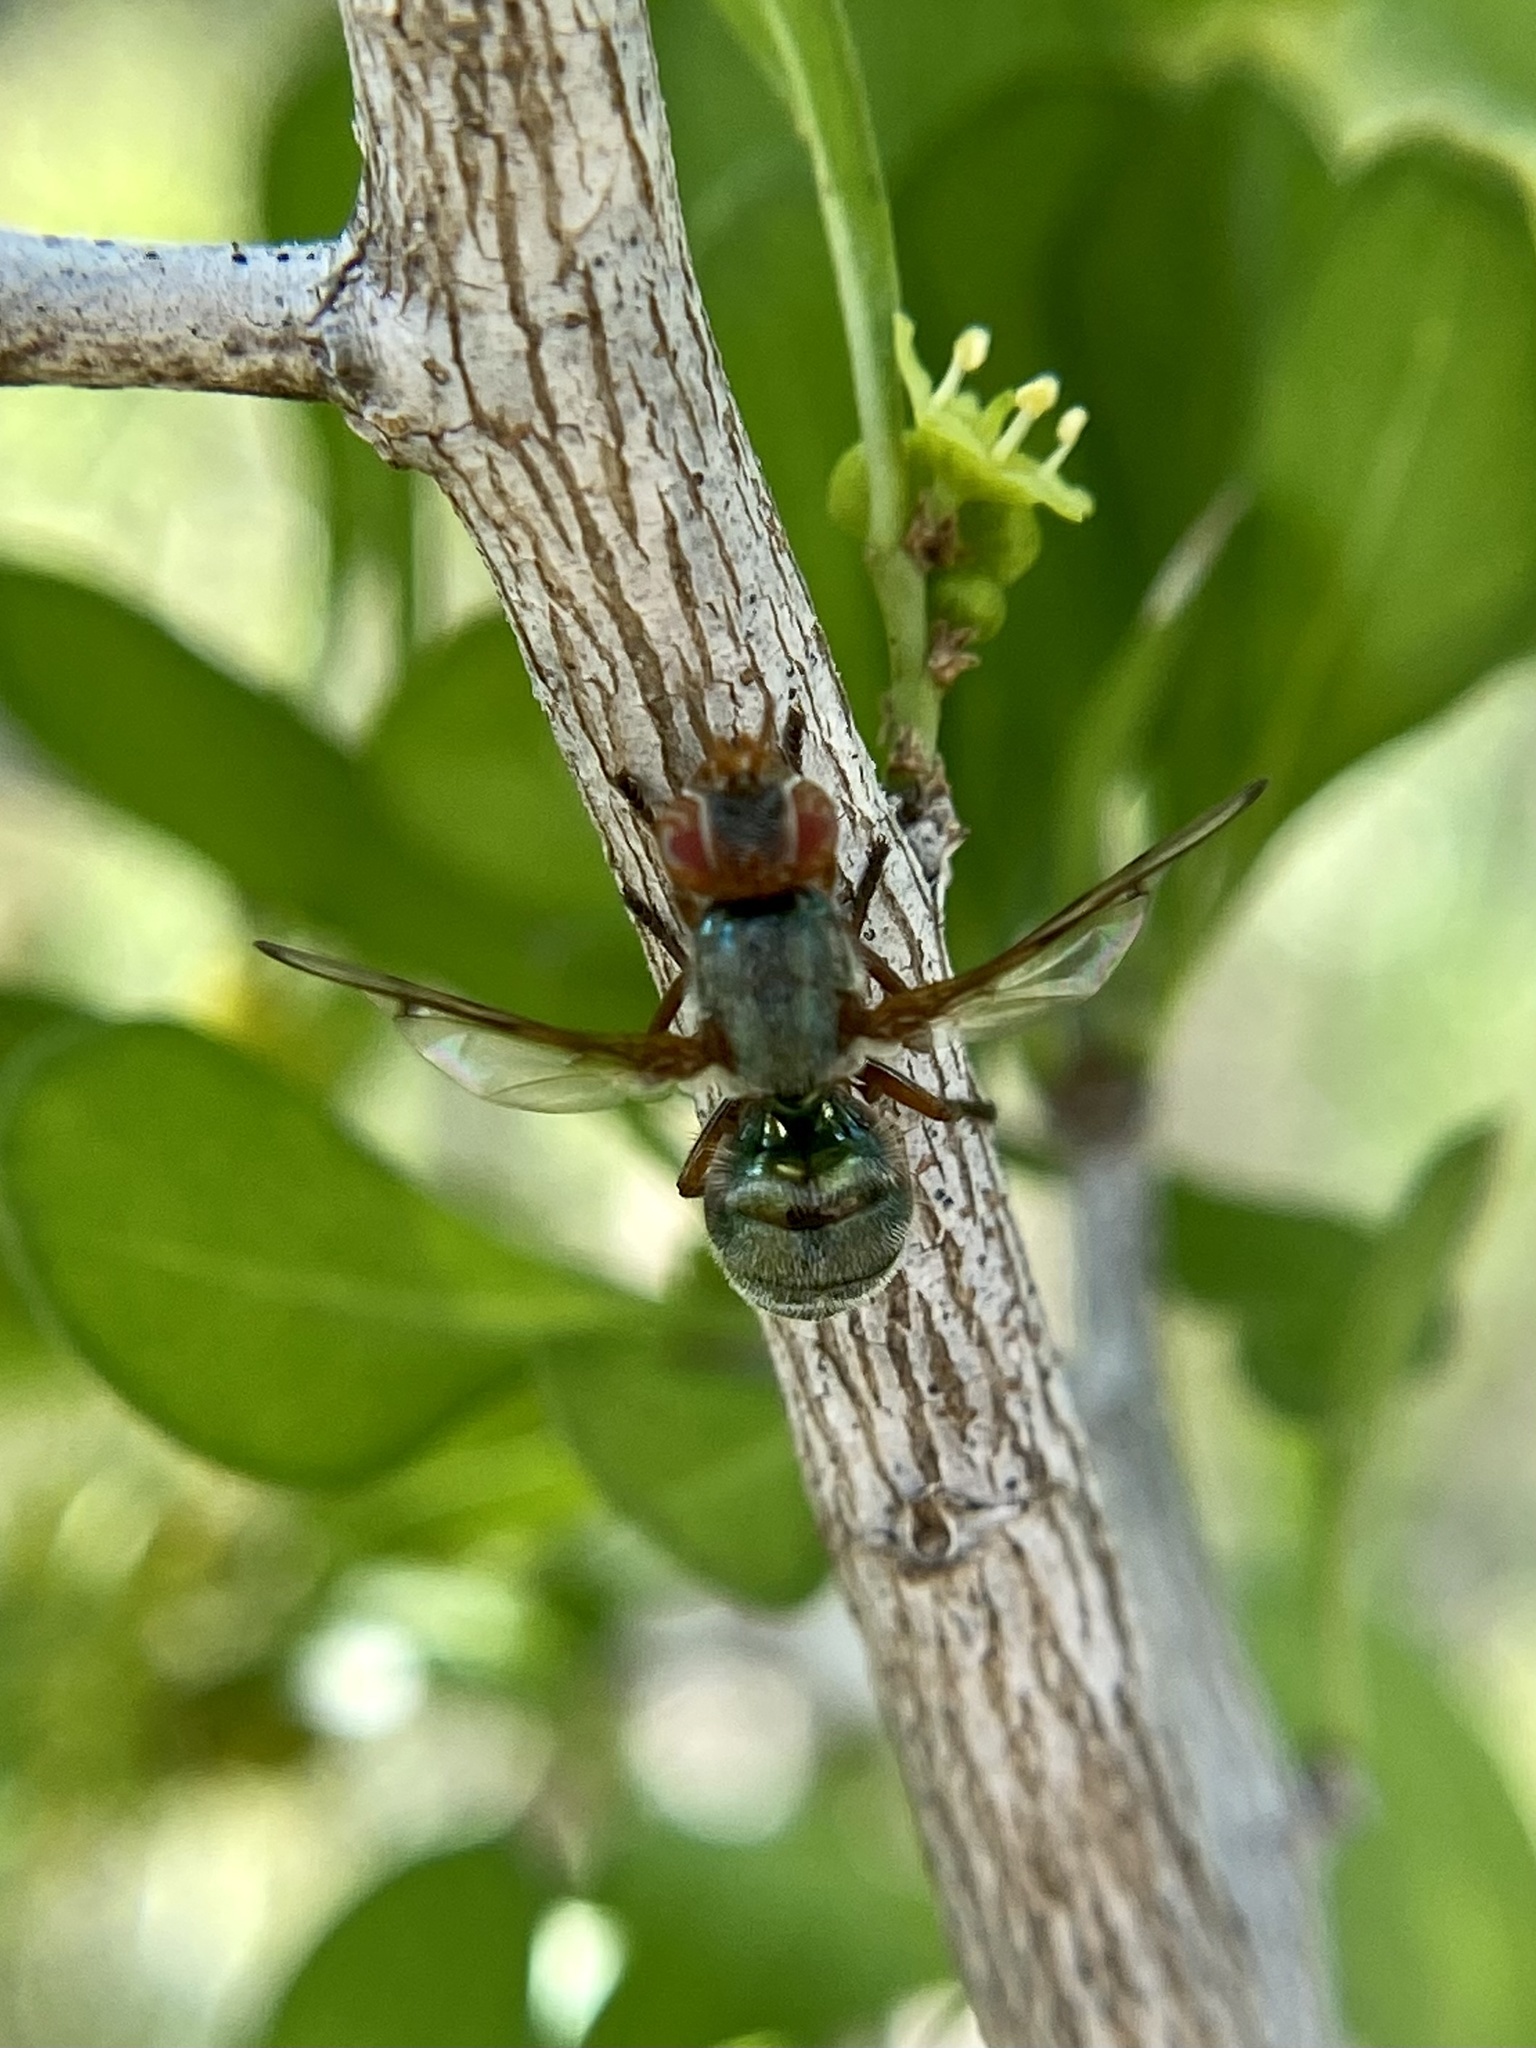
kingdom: Animalia
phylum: Arthropoda
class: Insecta
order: Diptera
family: Platystomatidae
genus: Senopterina
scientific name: Senopterina caerulescens
